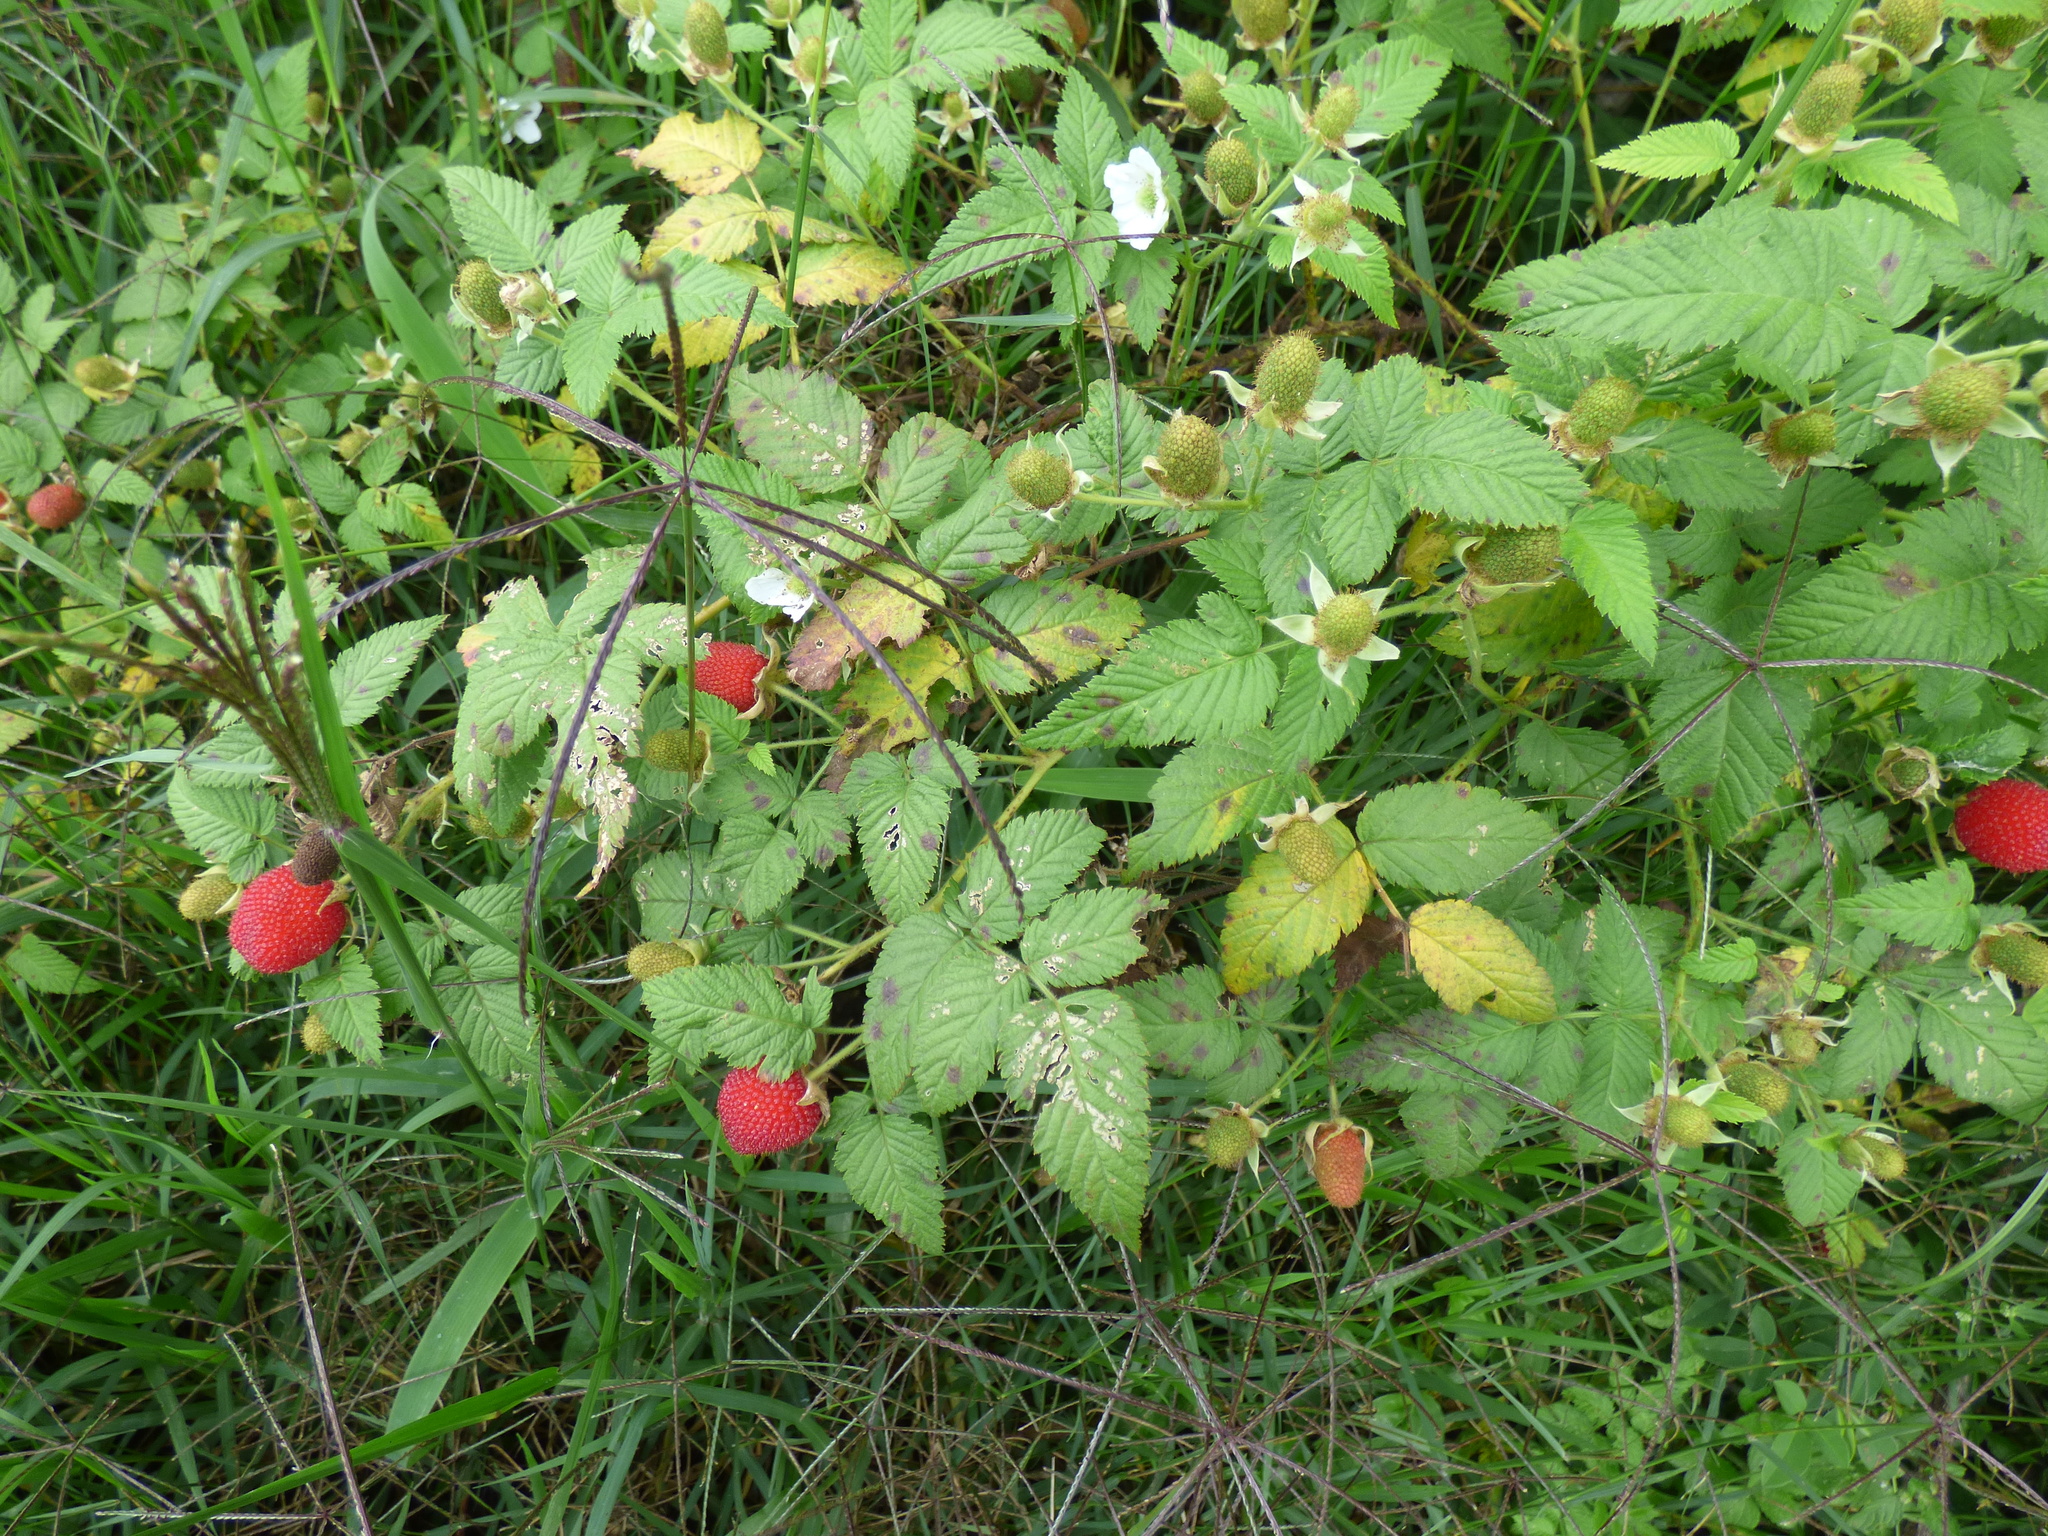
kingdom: Plantae
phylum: Tracheophyta
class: Magnoliopsida
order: Rosales
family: Rosaceae
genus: Rubus
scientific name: Rubus rosifolius
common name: Roseleaf raspberry
